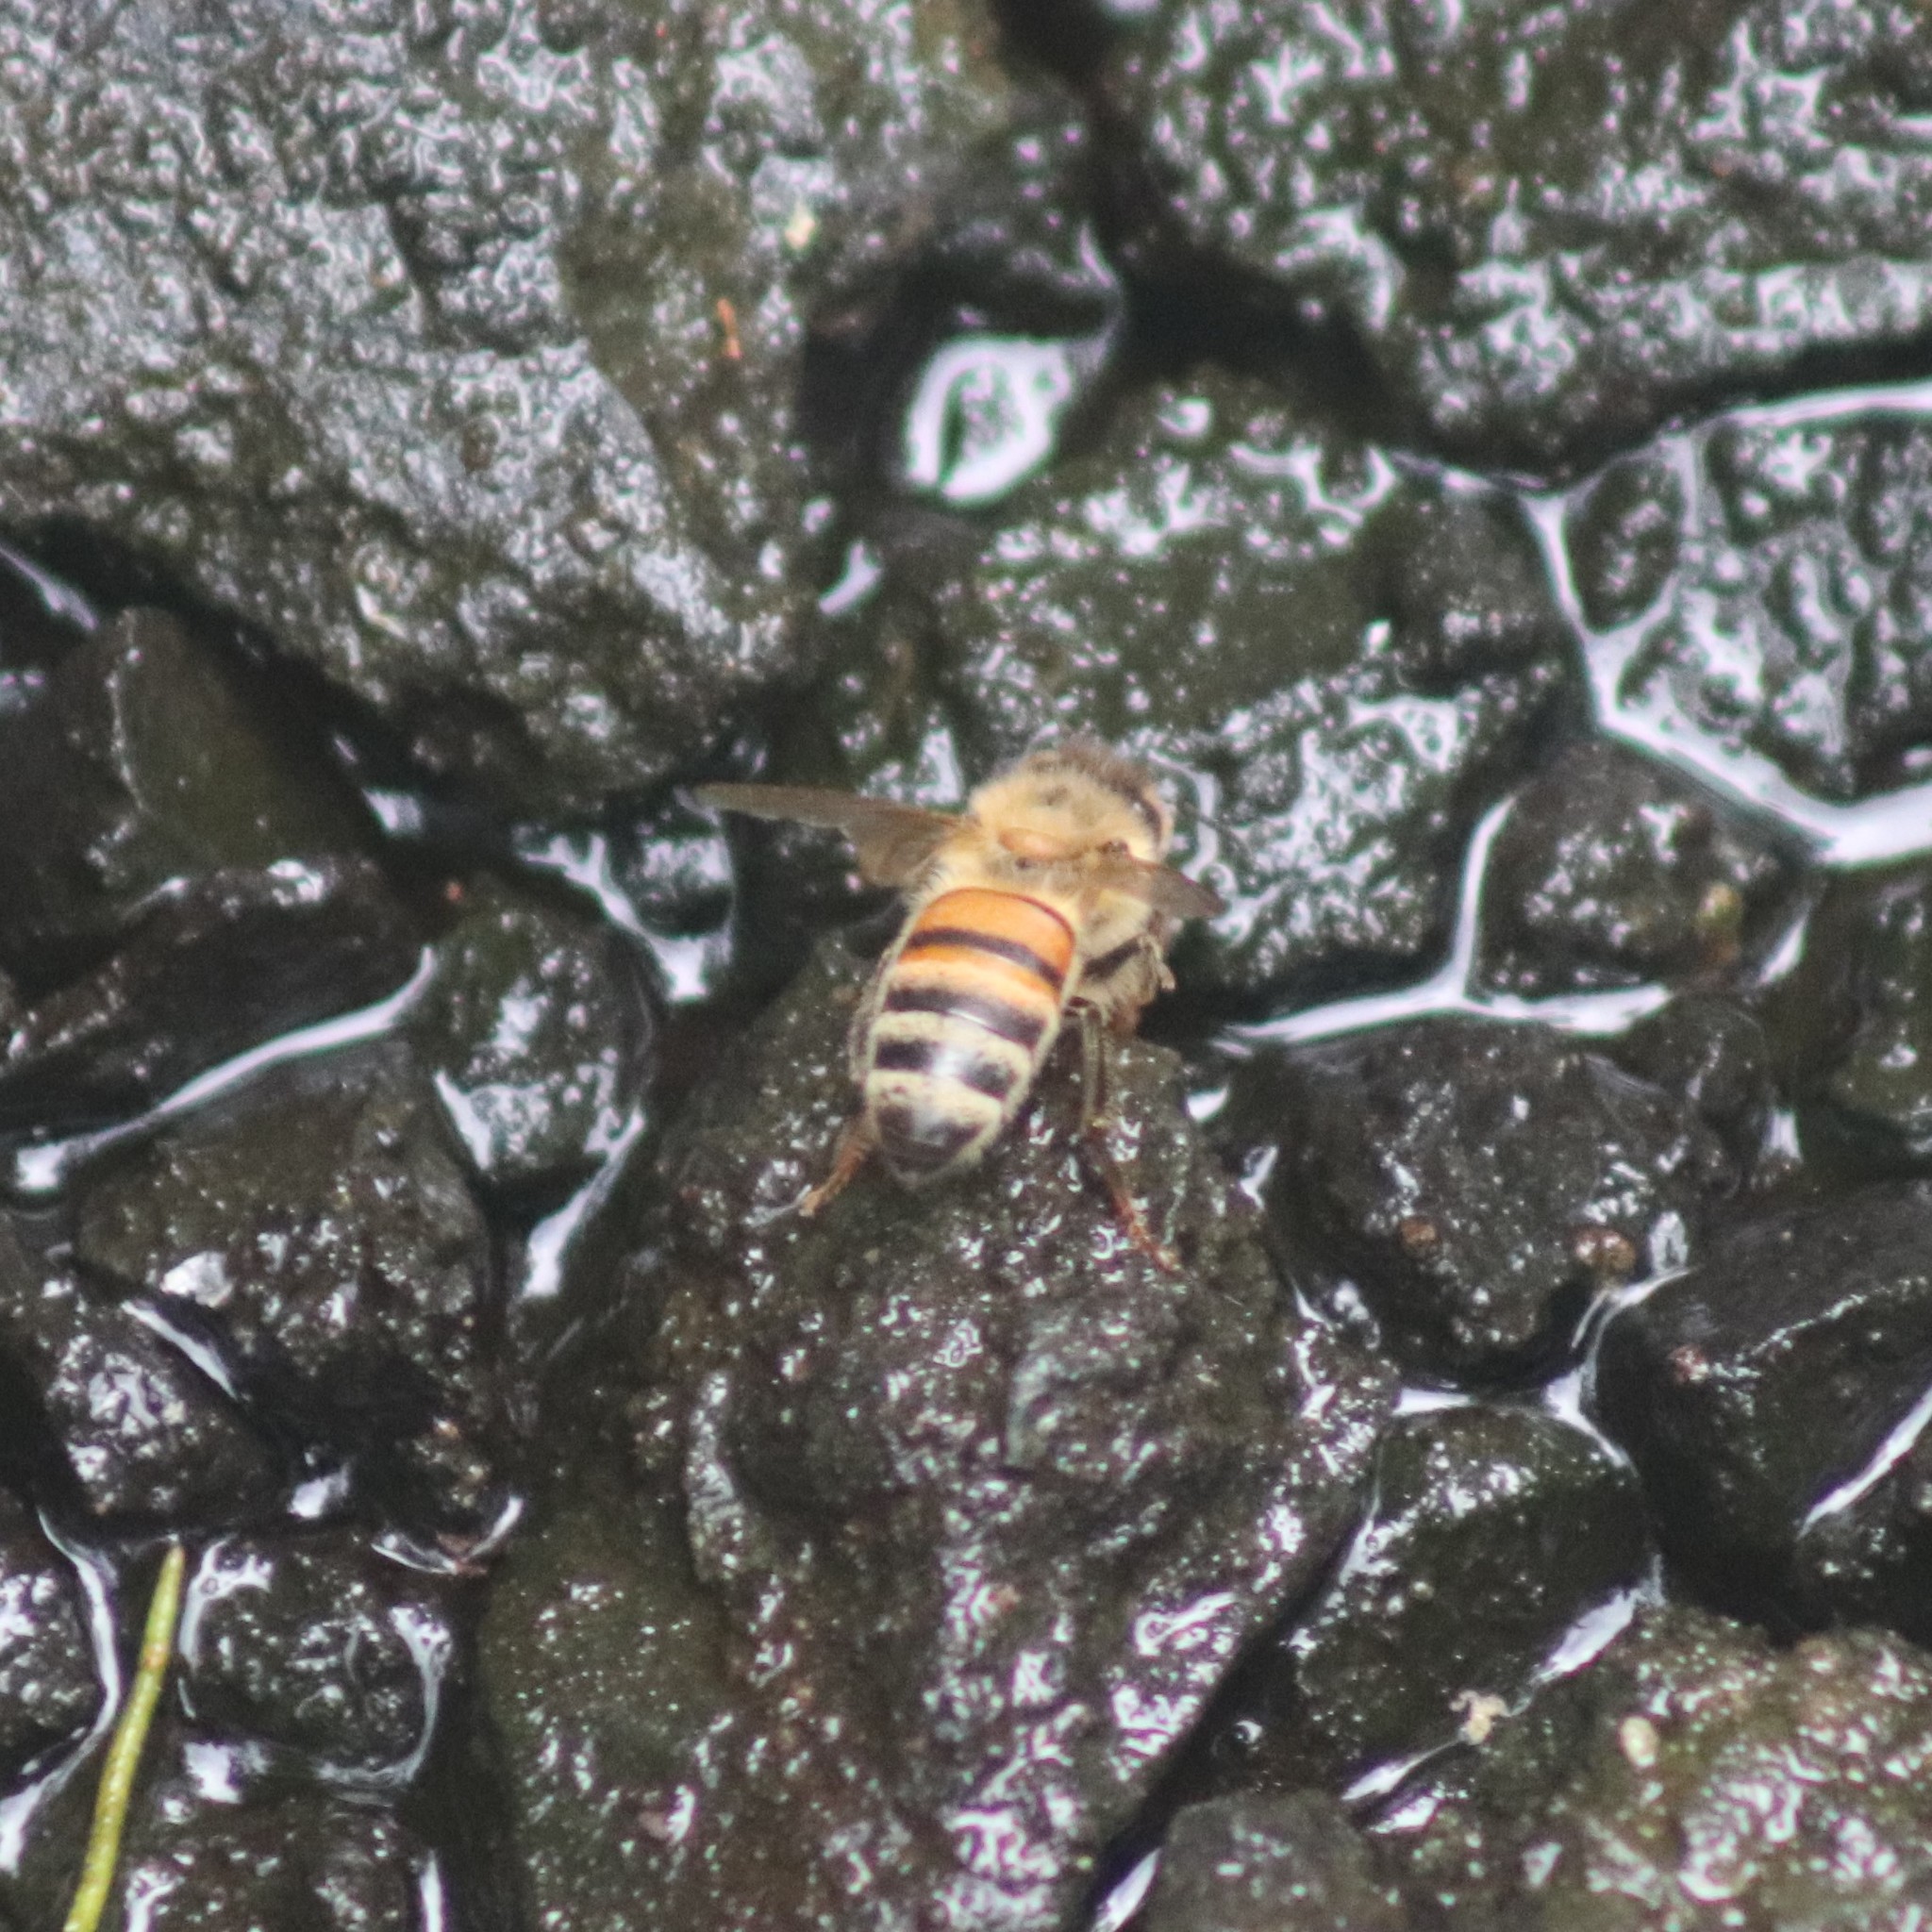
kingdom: Animalia
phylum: Arthropoda
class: Insecta
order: Hymenoptera
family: Apidae
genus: Apis
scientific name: Apis mellifera
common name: Honey bee
